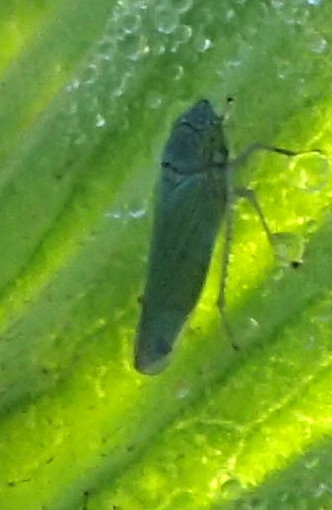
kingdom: Animalia
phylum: Arthropoda
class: Insecta
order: Hemiptera
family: Cicadellidae
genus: Draeculacephala
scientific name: Draeculacephala inscripta
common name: Leafhopper
